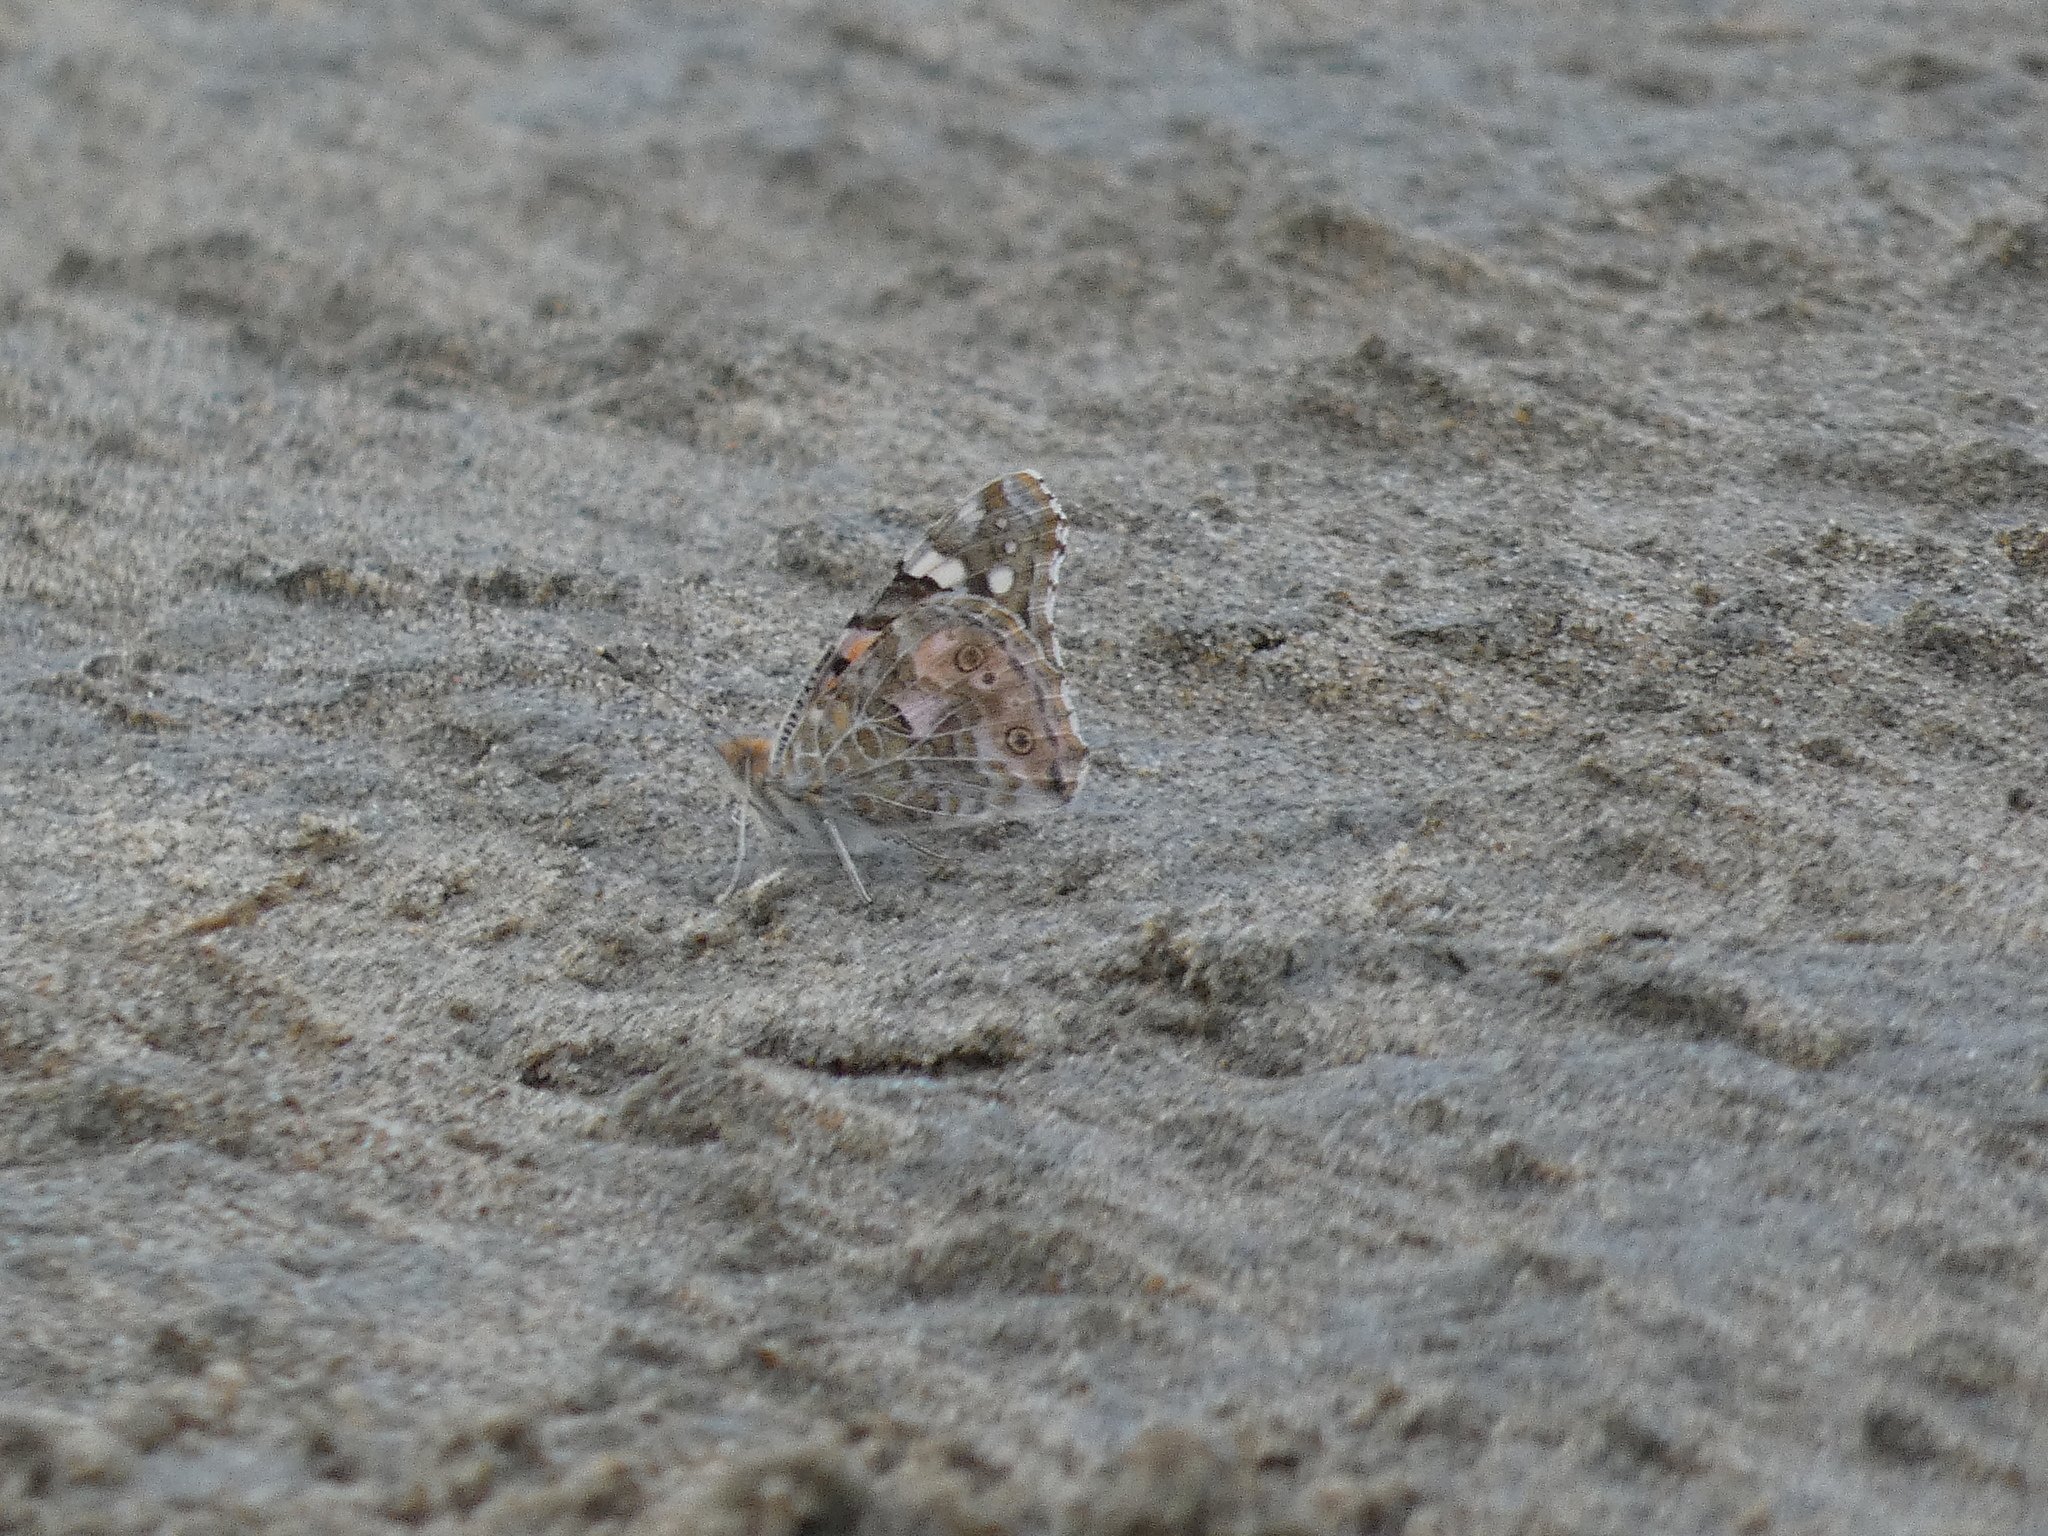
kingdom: Animalia
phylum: Arthropoda
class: Insecta
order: Lepidoptera
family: Nymphalidae
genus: Vanessa
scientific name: Vanessa cardui
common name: Painted lady
